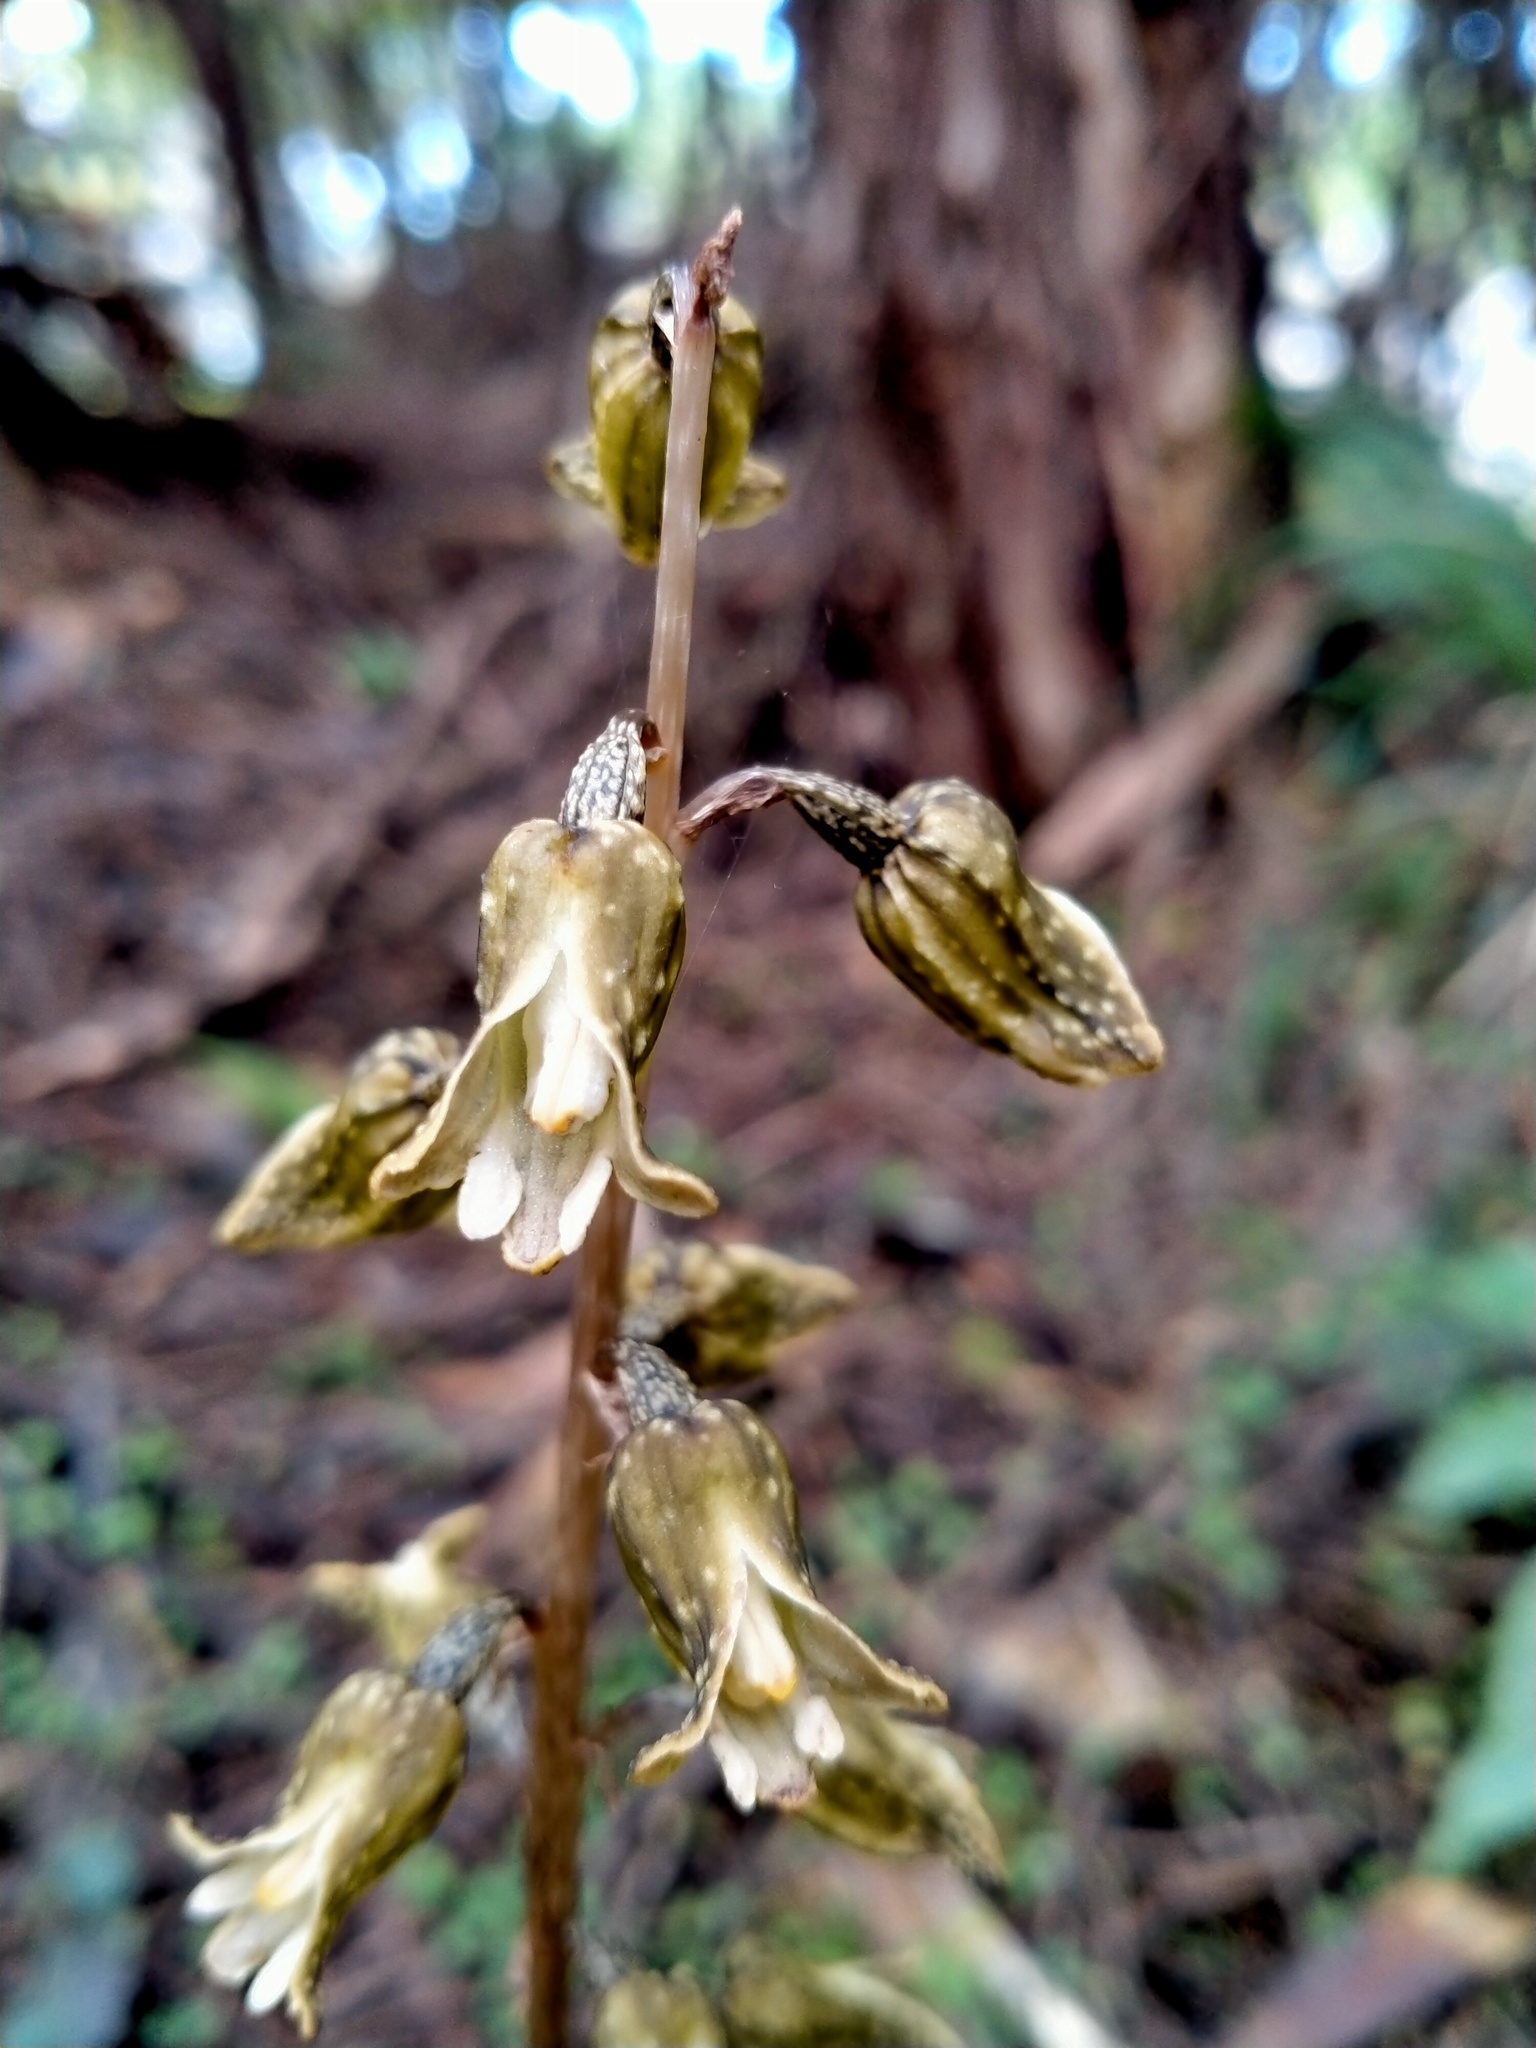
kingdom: Plantae
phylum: Tracheophyta
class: Liliopsida
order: Asparagales
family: Orchidaceae
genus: Gastrodia
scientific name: Gastrodia molloyi
